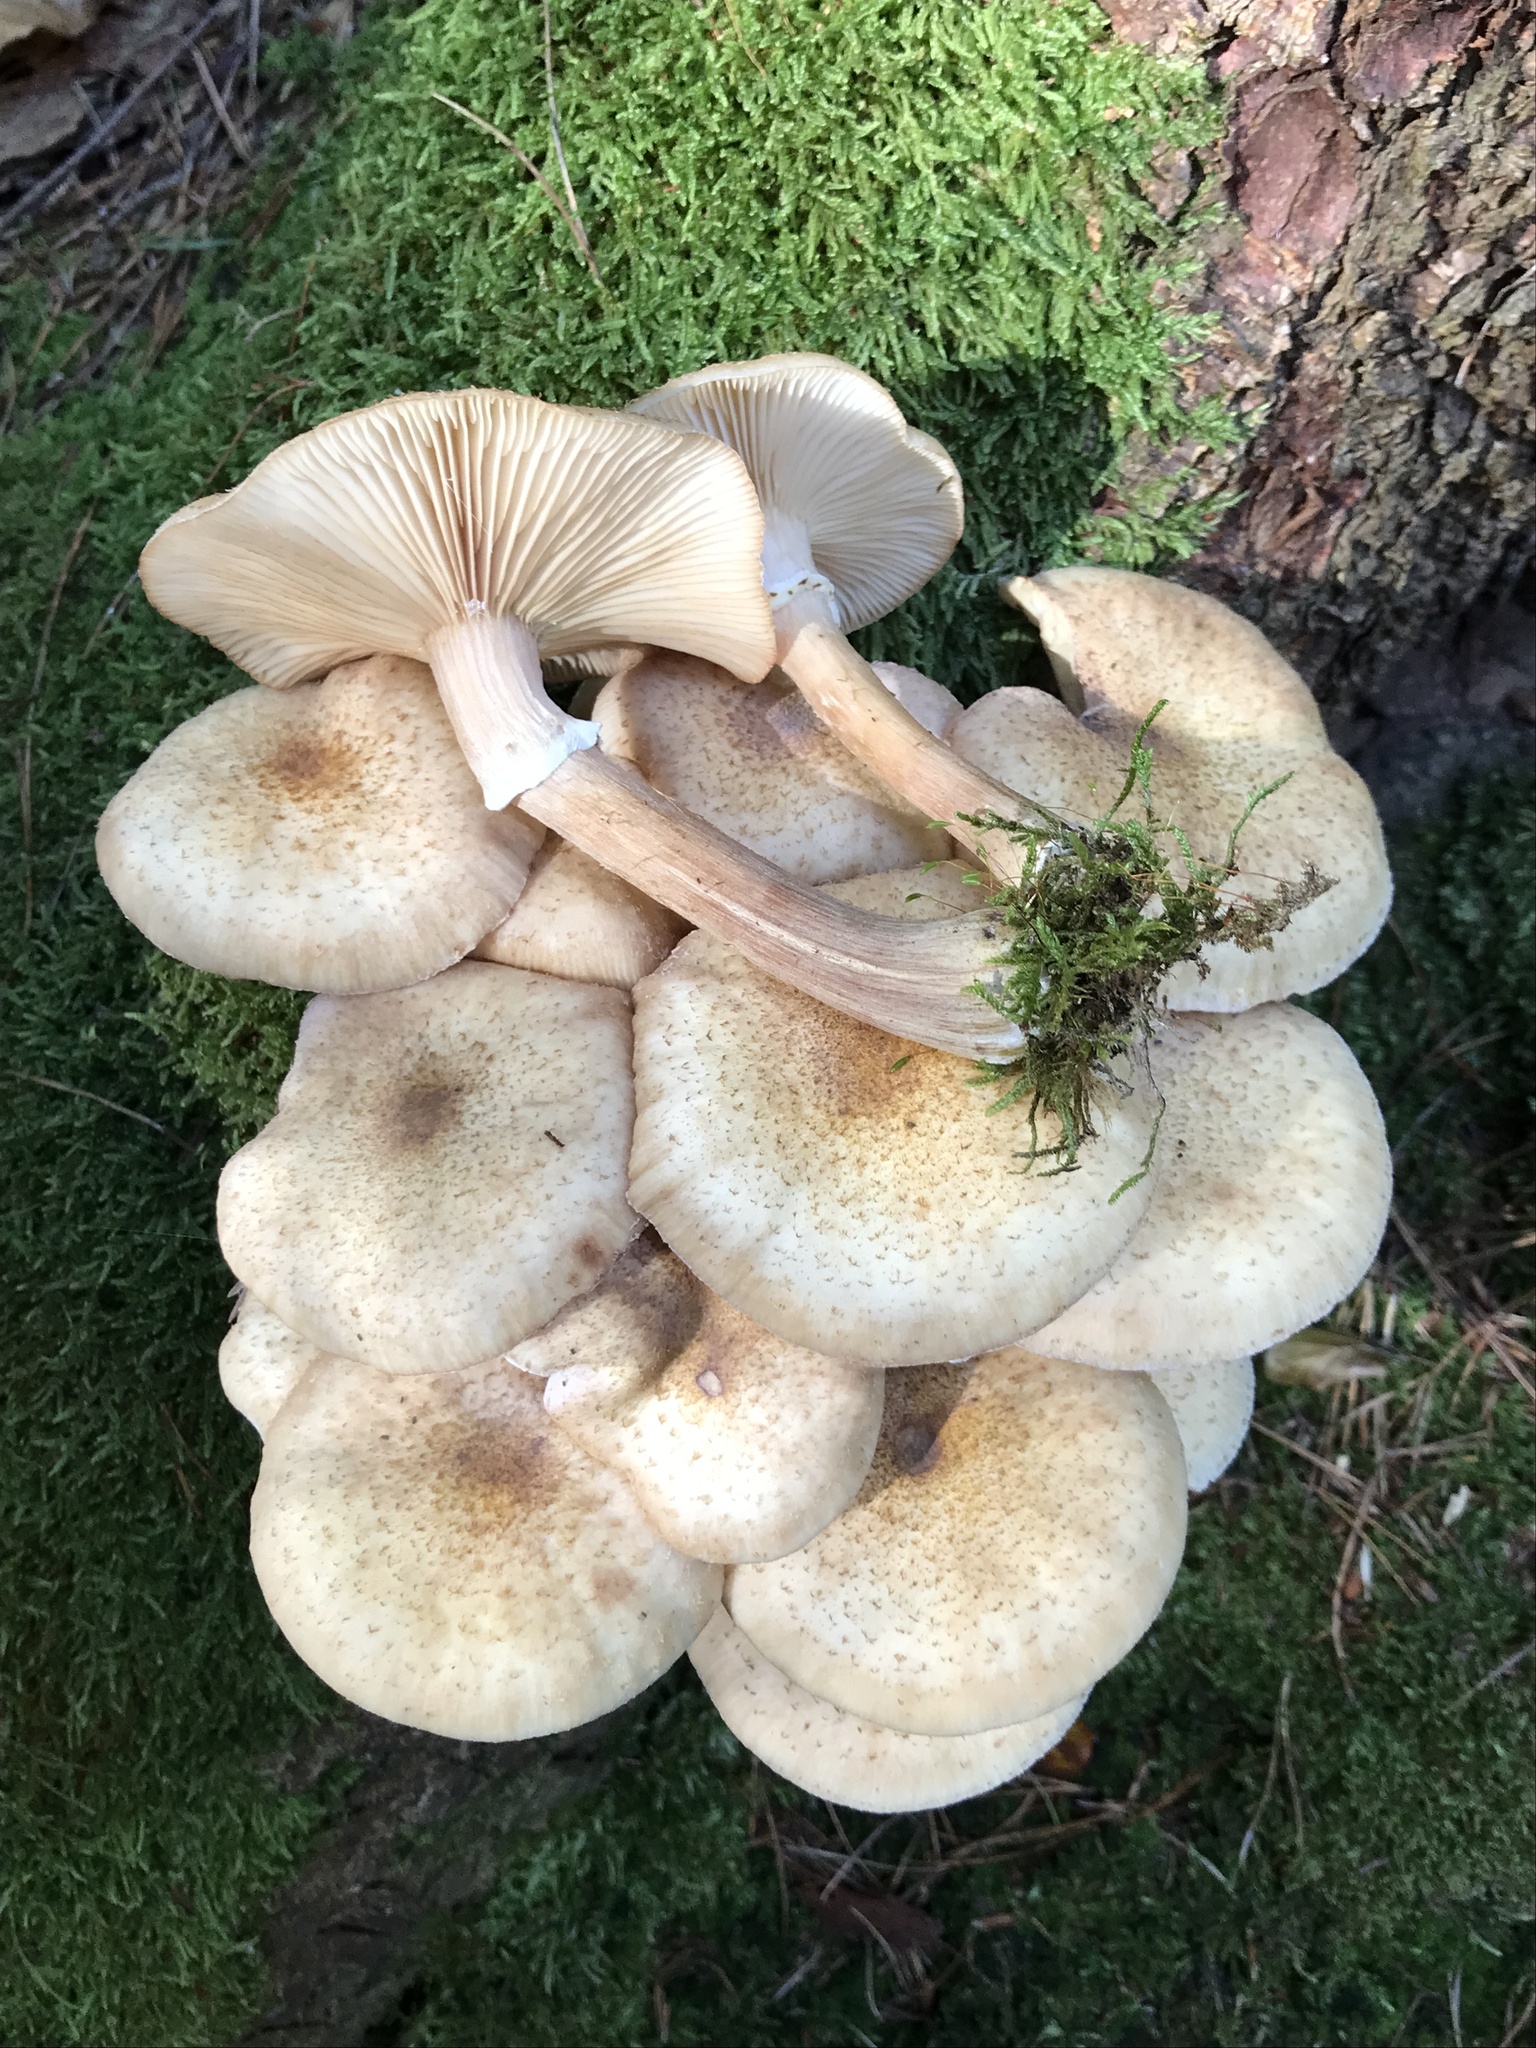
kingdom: Fungi
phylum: Basidiomycota
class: Agaricomycetes
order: Agaricales
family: Physalacriaceae
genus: Armillaria
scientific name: Armillaria borealis
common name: Northern honey fungus
